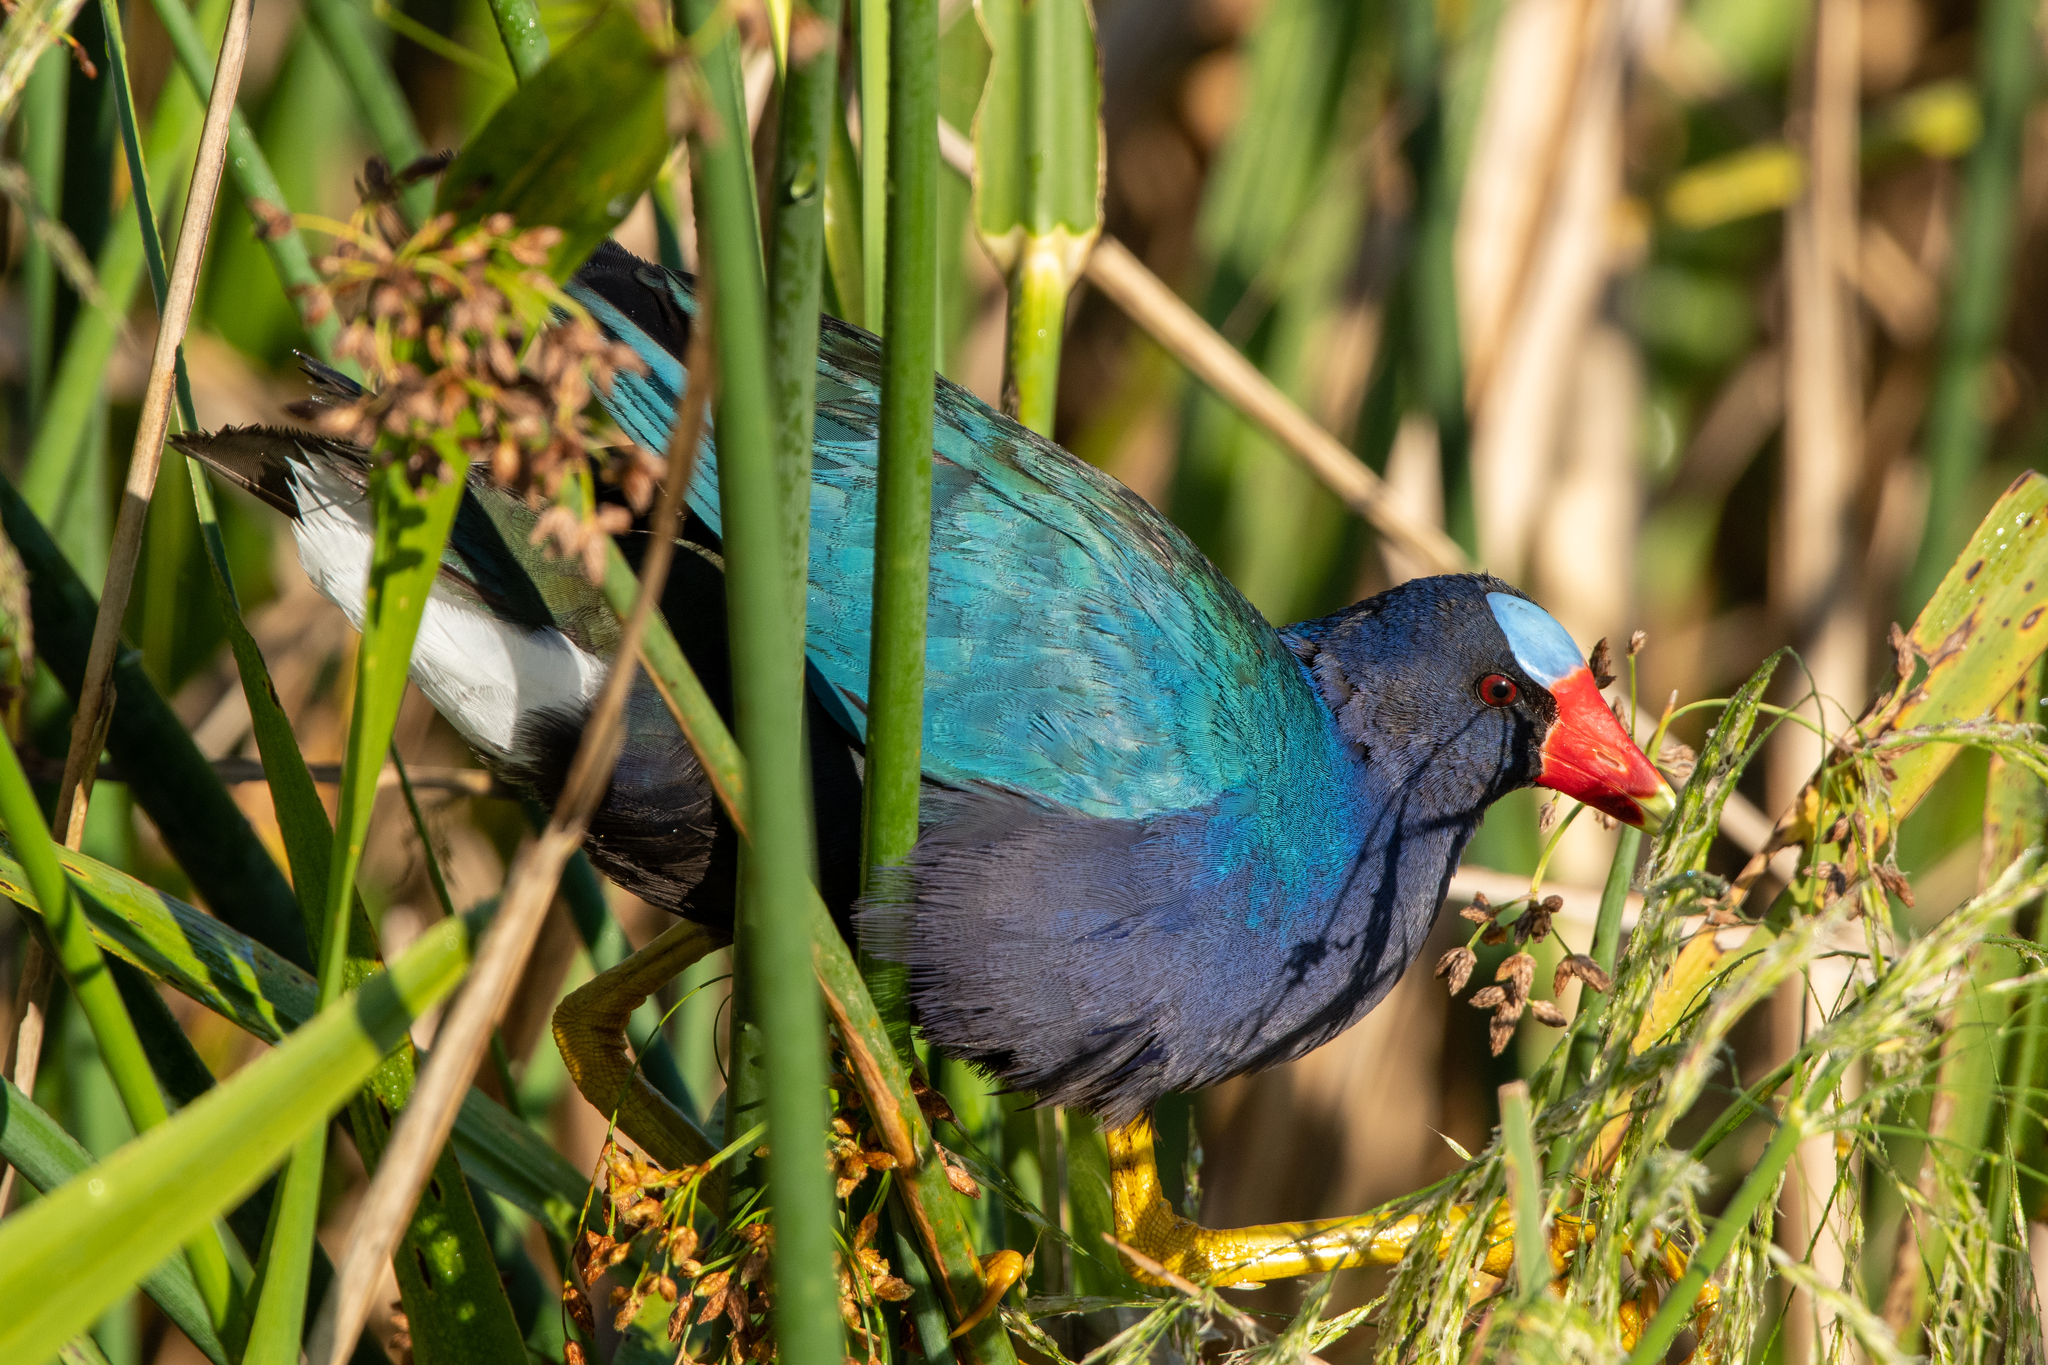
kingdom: Animalia
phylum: Chordata
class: Aves
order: Gruiformes
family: Rallidae
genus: Porphyrio
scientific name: Porphyrio martinica
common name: Purple gallinule
